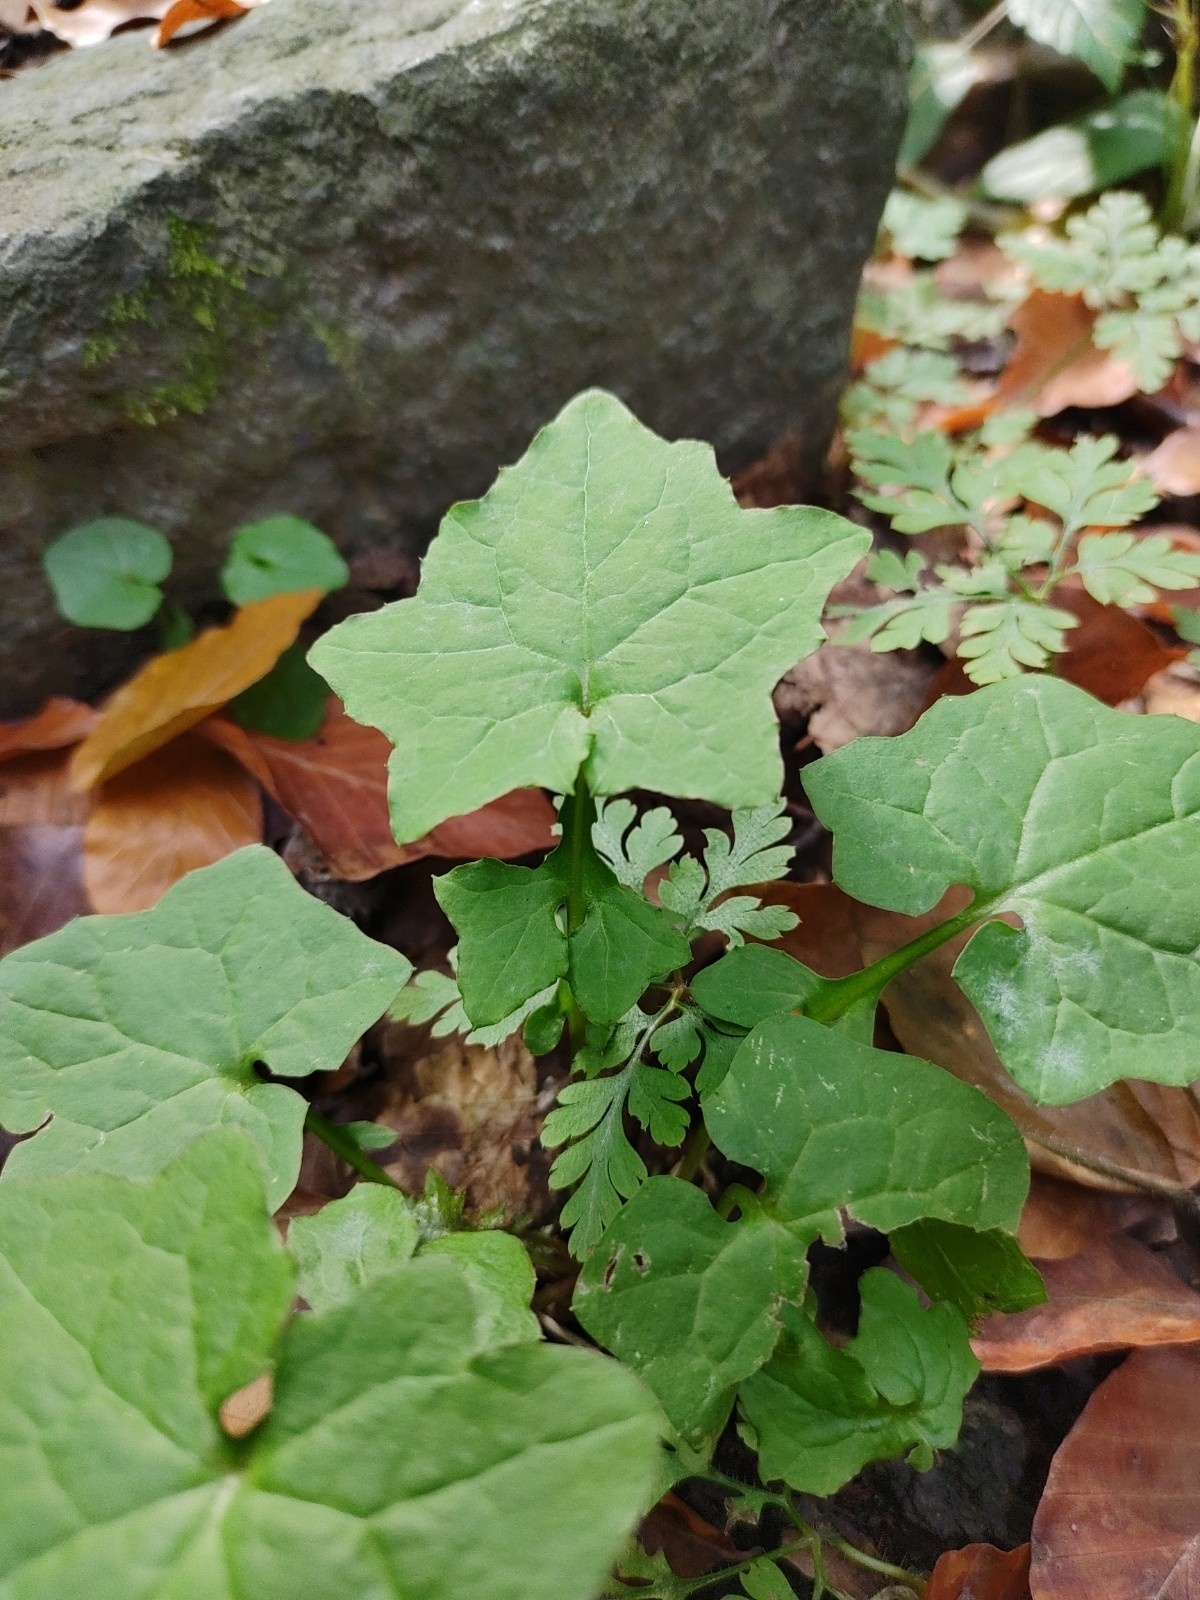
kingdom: Plantae
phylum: Tracheophyta
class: Magnoliopsida
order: Asterales
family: Asteraceae
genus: Mycelis
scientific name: Mycelis muralis
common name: Wall lettuce
